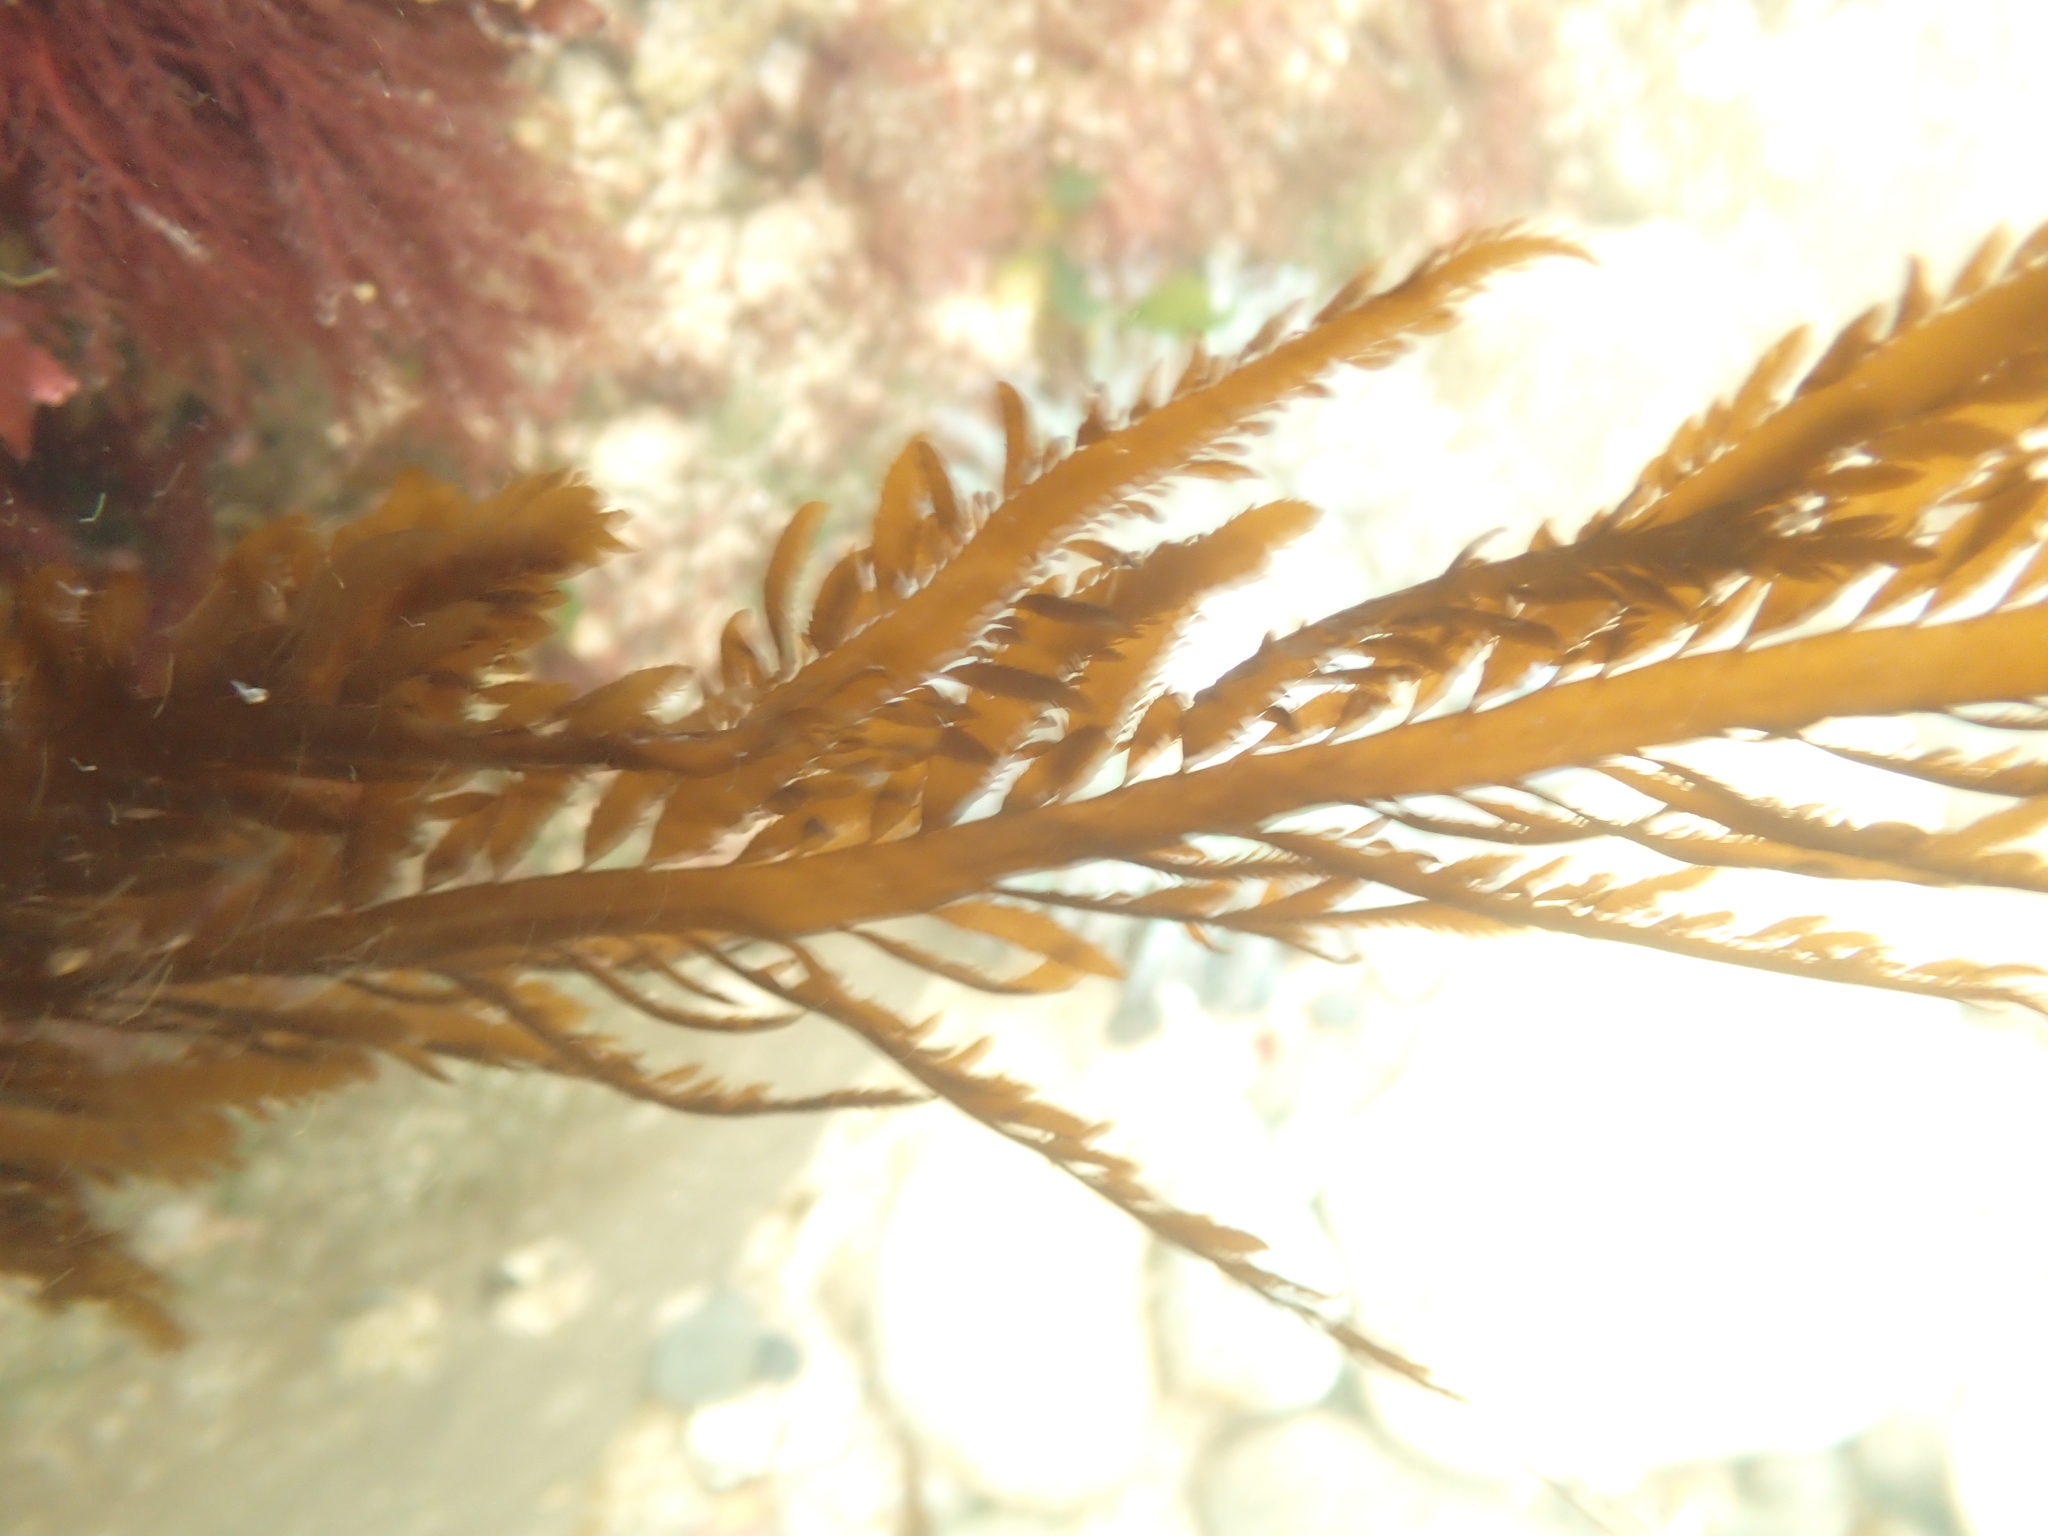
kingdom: Chromista
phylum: Ochrophyta
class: Phaeophyceae
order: Desmarestiales
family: Desmarestiaceae
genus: Desmarestia
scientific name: Desmarestia ligulata
